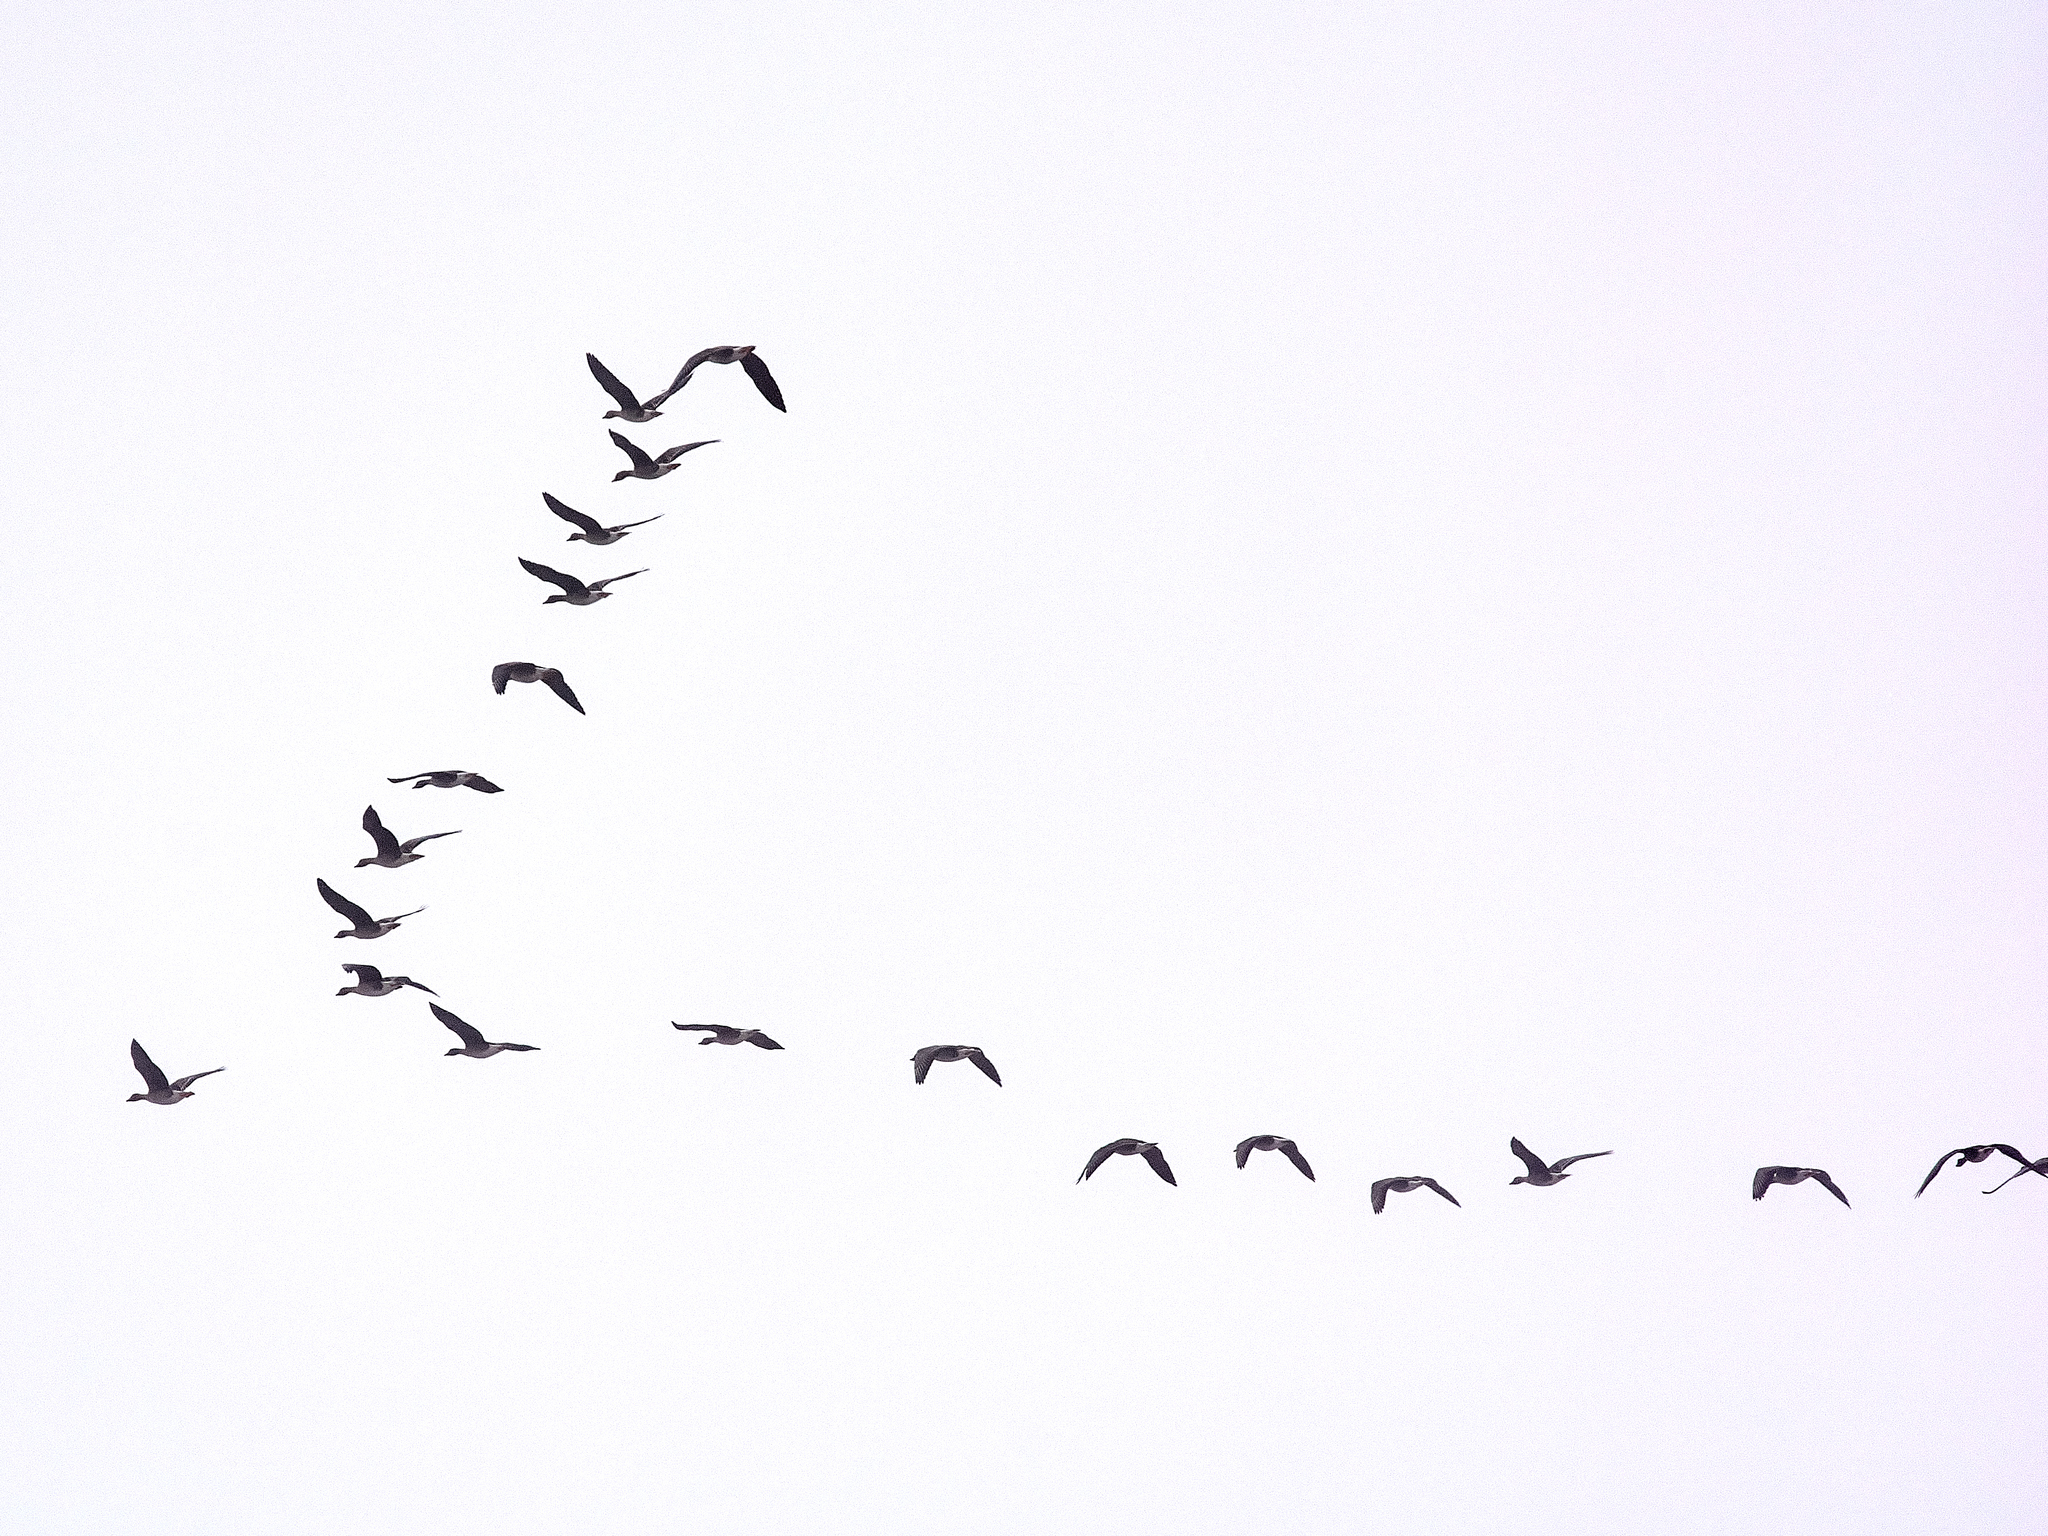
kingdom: Animalia
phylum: Chordata
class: Aves
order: Anseriformes
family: Anatidae
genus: Anser
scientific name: Anser fabalis
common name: Bean goose
